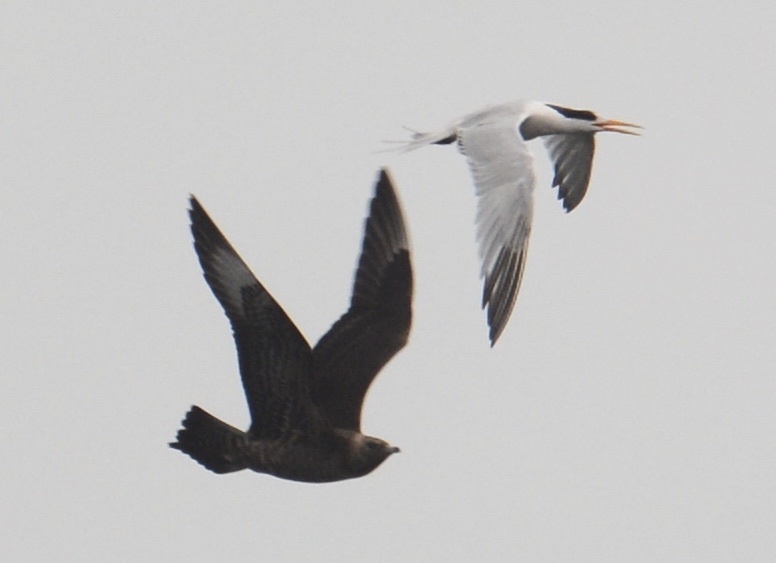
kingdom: Animalia
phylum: Chordata
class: Aves
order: Charadriiformes
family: Stercorariidae
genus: Stercorarius
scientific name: Stercorarius parasiticus
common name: Parasitic jaeger
